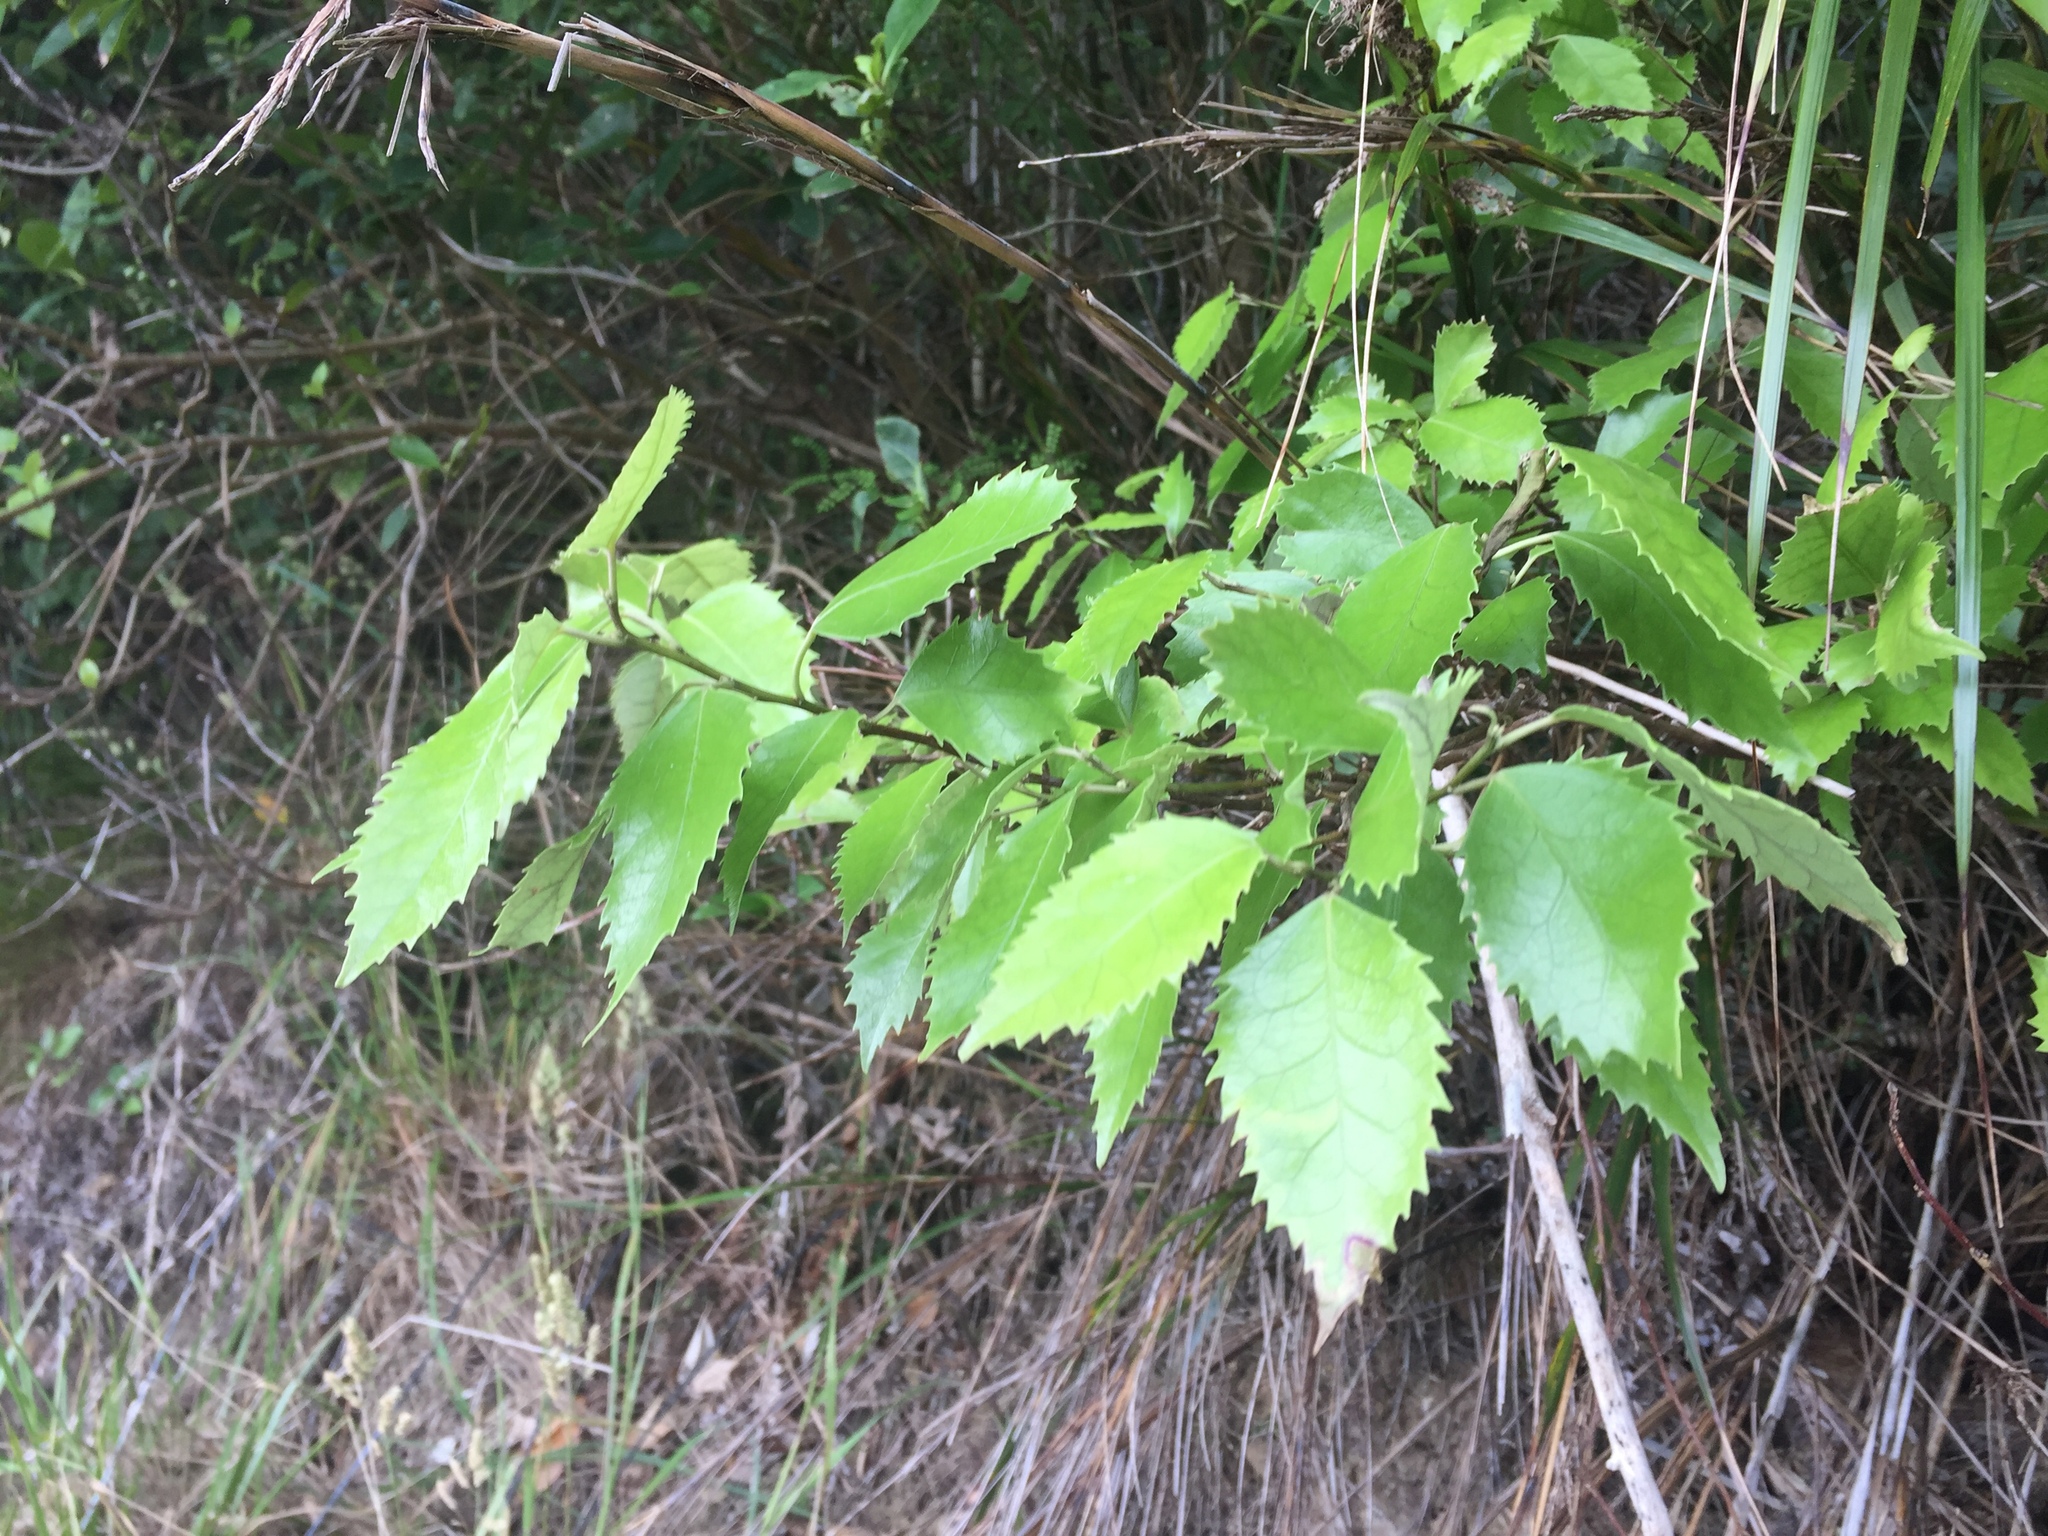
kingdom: Plantae
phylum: Tracheophyta
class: Magnoliopsida
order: Malvales
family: Malvaceae
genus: Hoheria
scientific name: Hoheria populnea
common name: Lacebark
